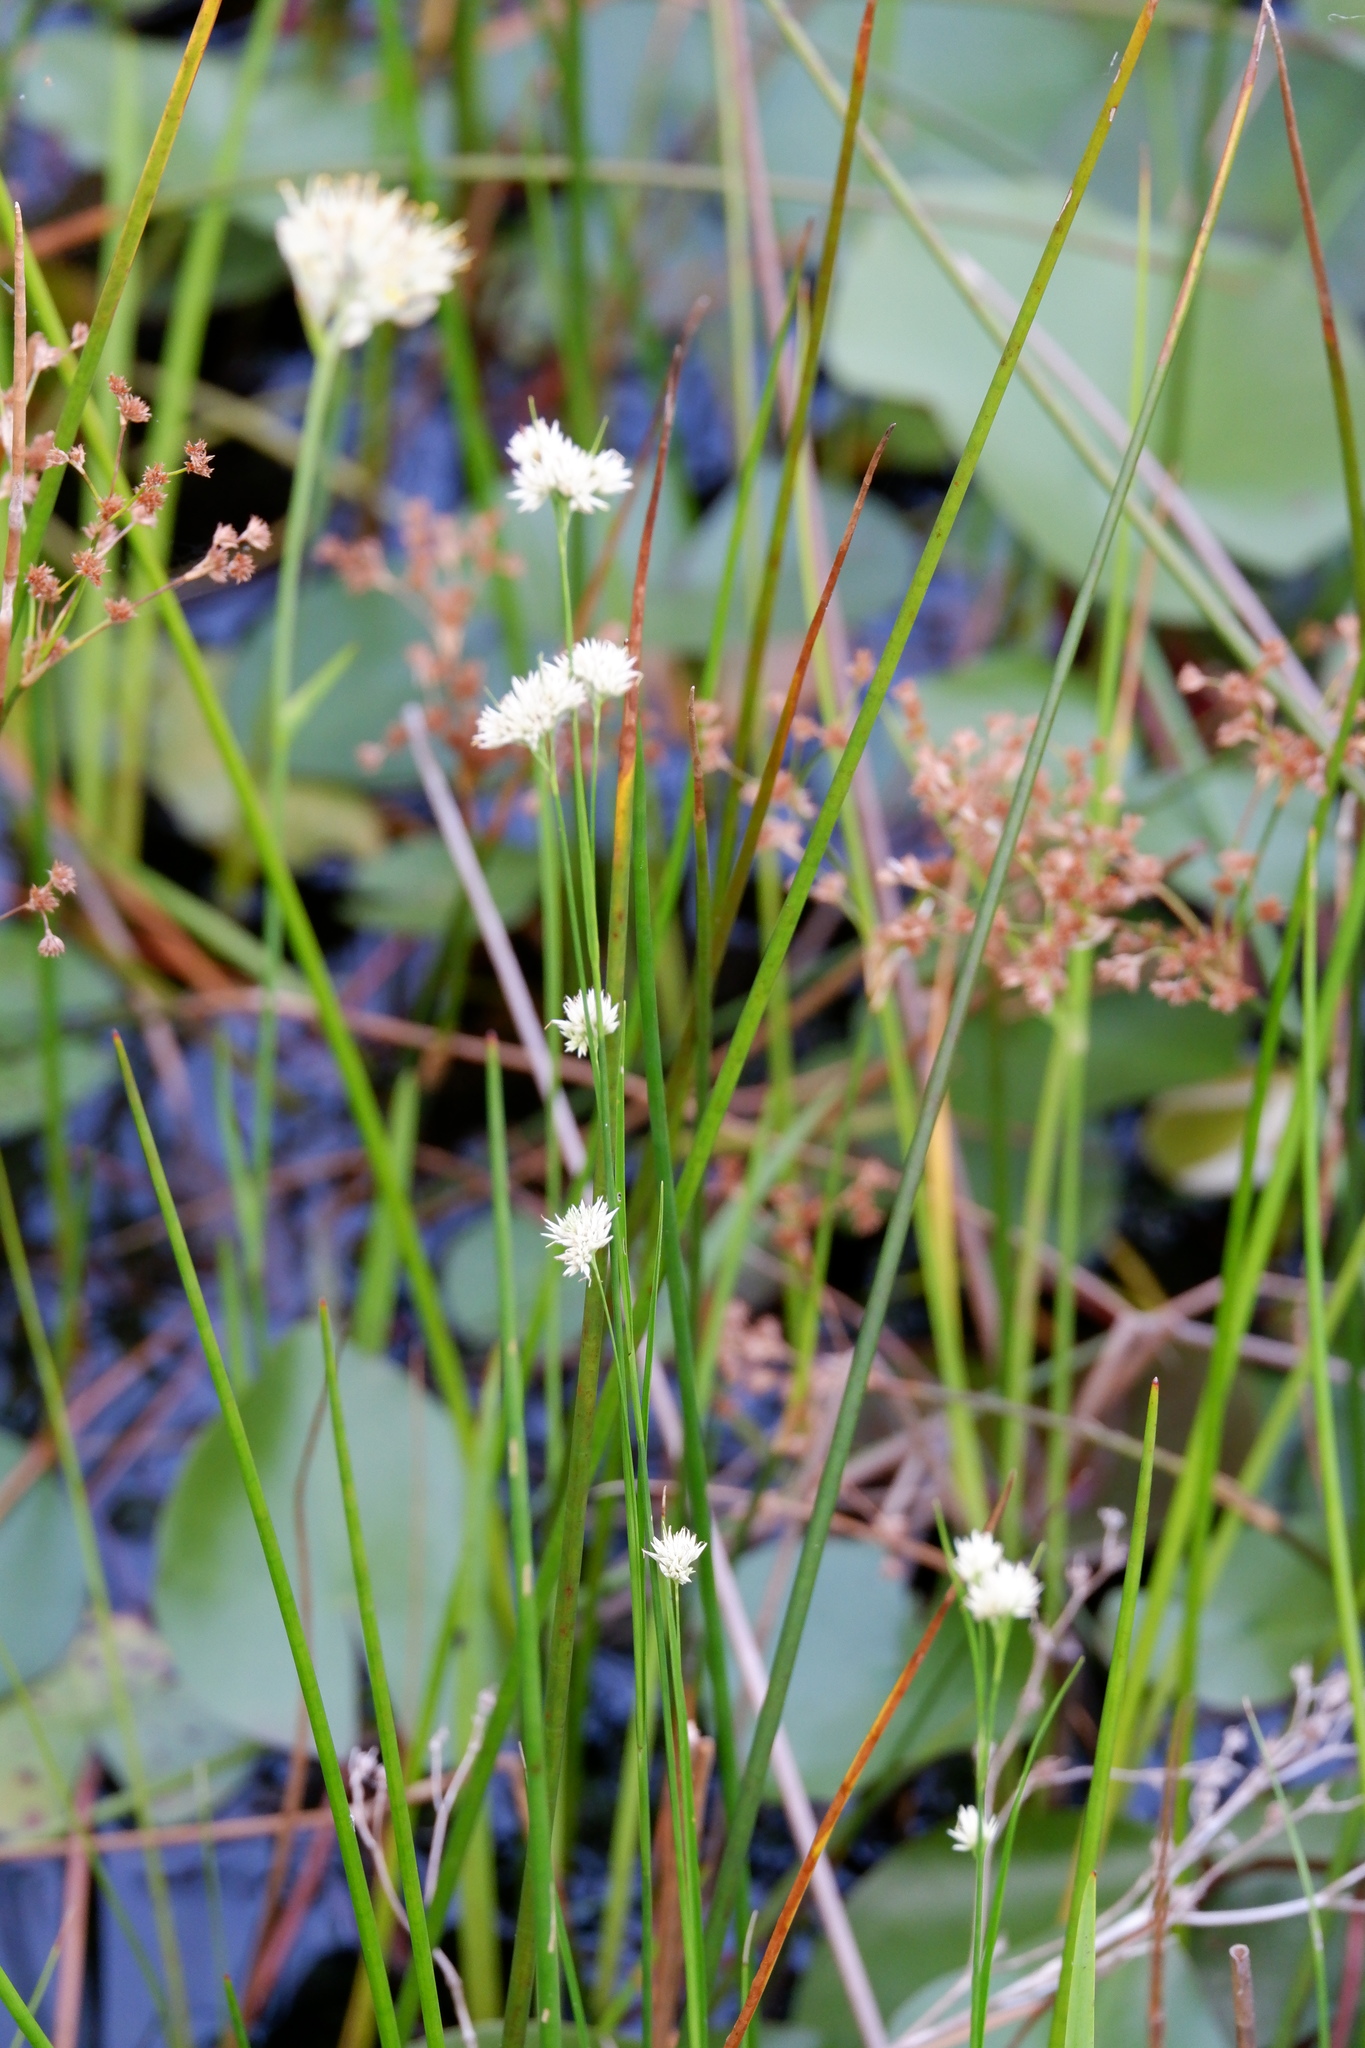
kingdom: Plantae
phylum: Tracheophyta
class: Liliopsida
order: Poales
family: Cyperaceae
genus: Rhynchospora
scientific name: Rhynchospora alba
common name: White beak-sedge
